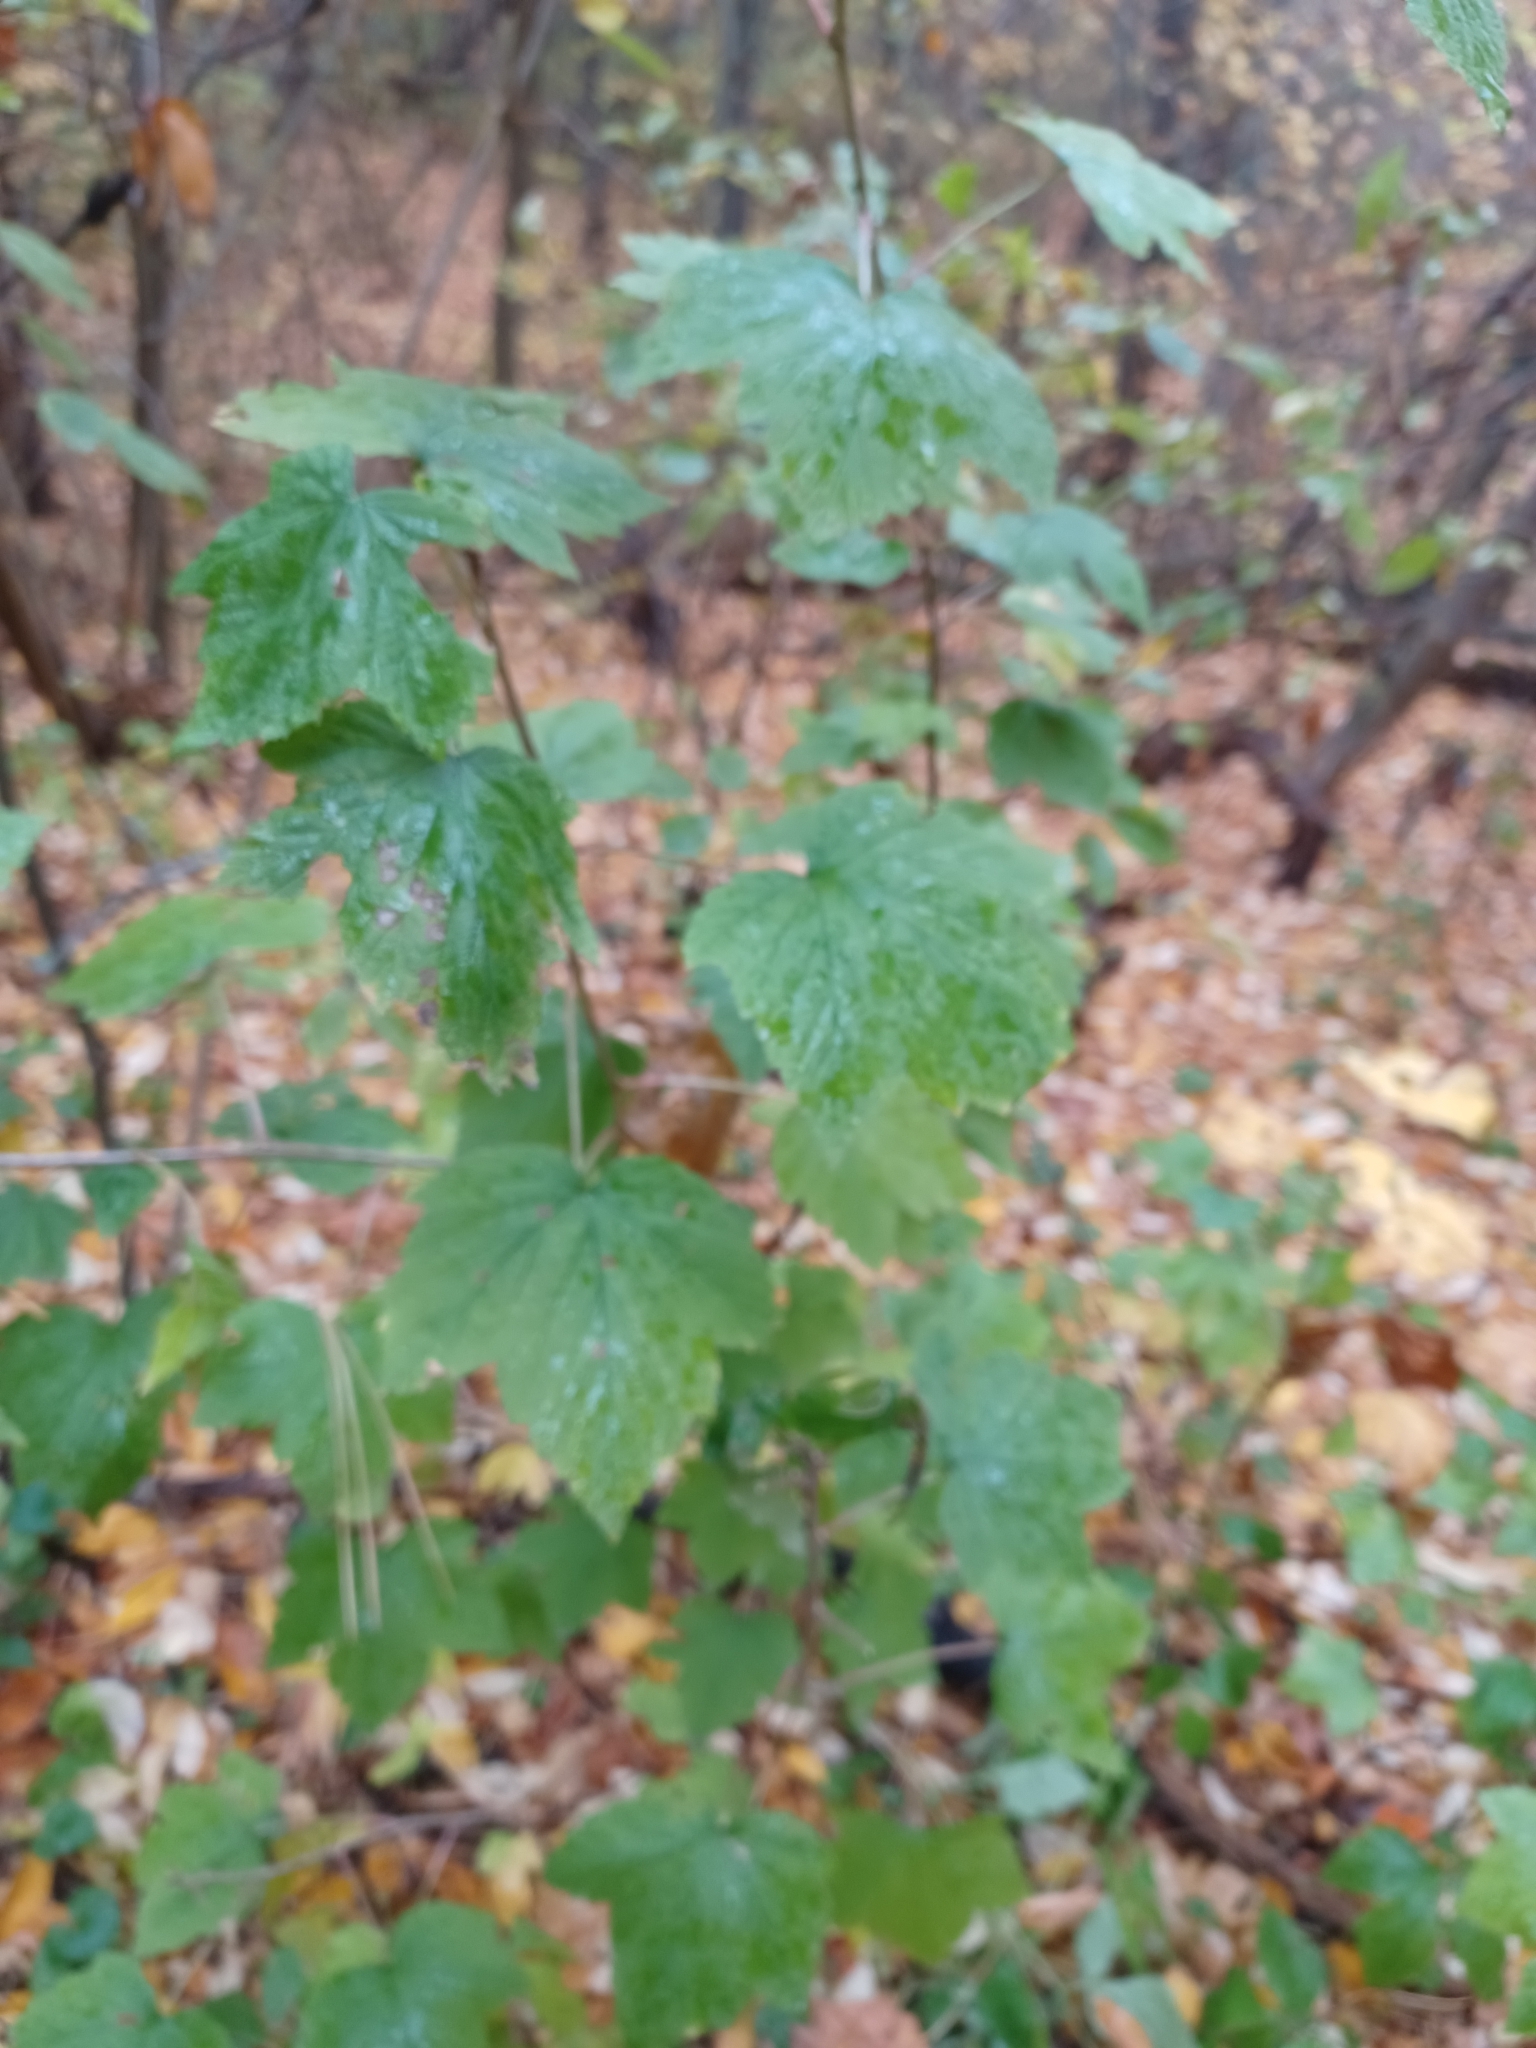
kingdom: Plantae
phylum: Tracheophyta
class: Magnoliopsida
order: Saxifragales
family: Grossulariaceae
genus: Ribes
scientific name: Ribes americanum
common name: American black currant
